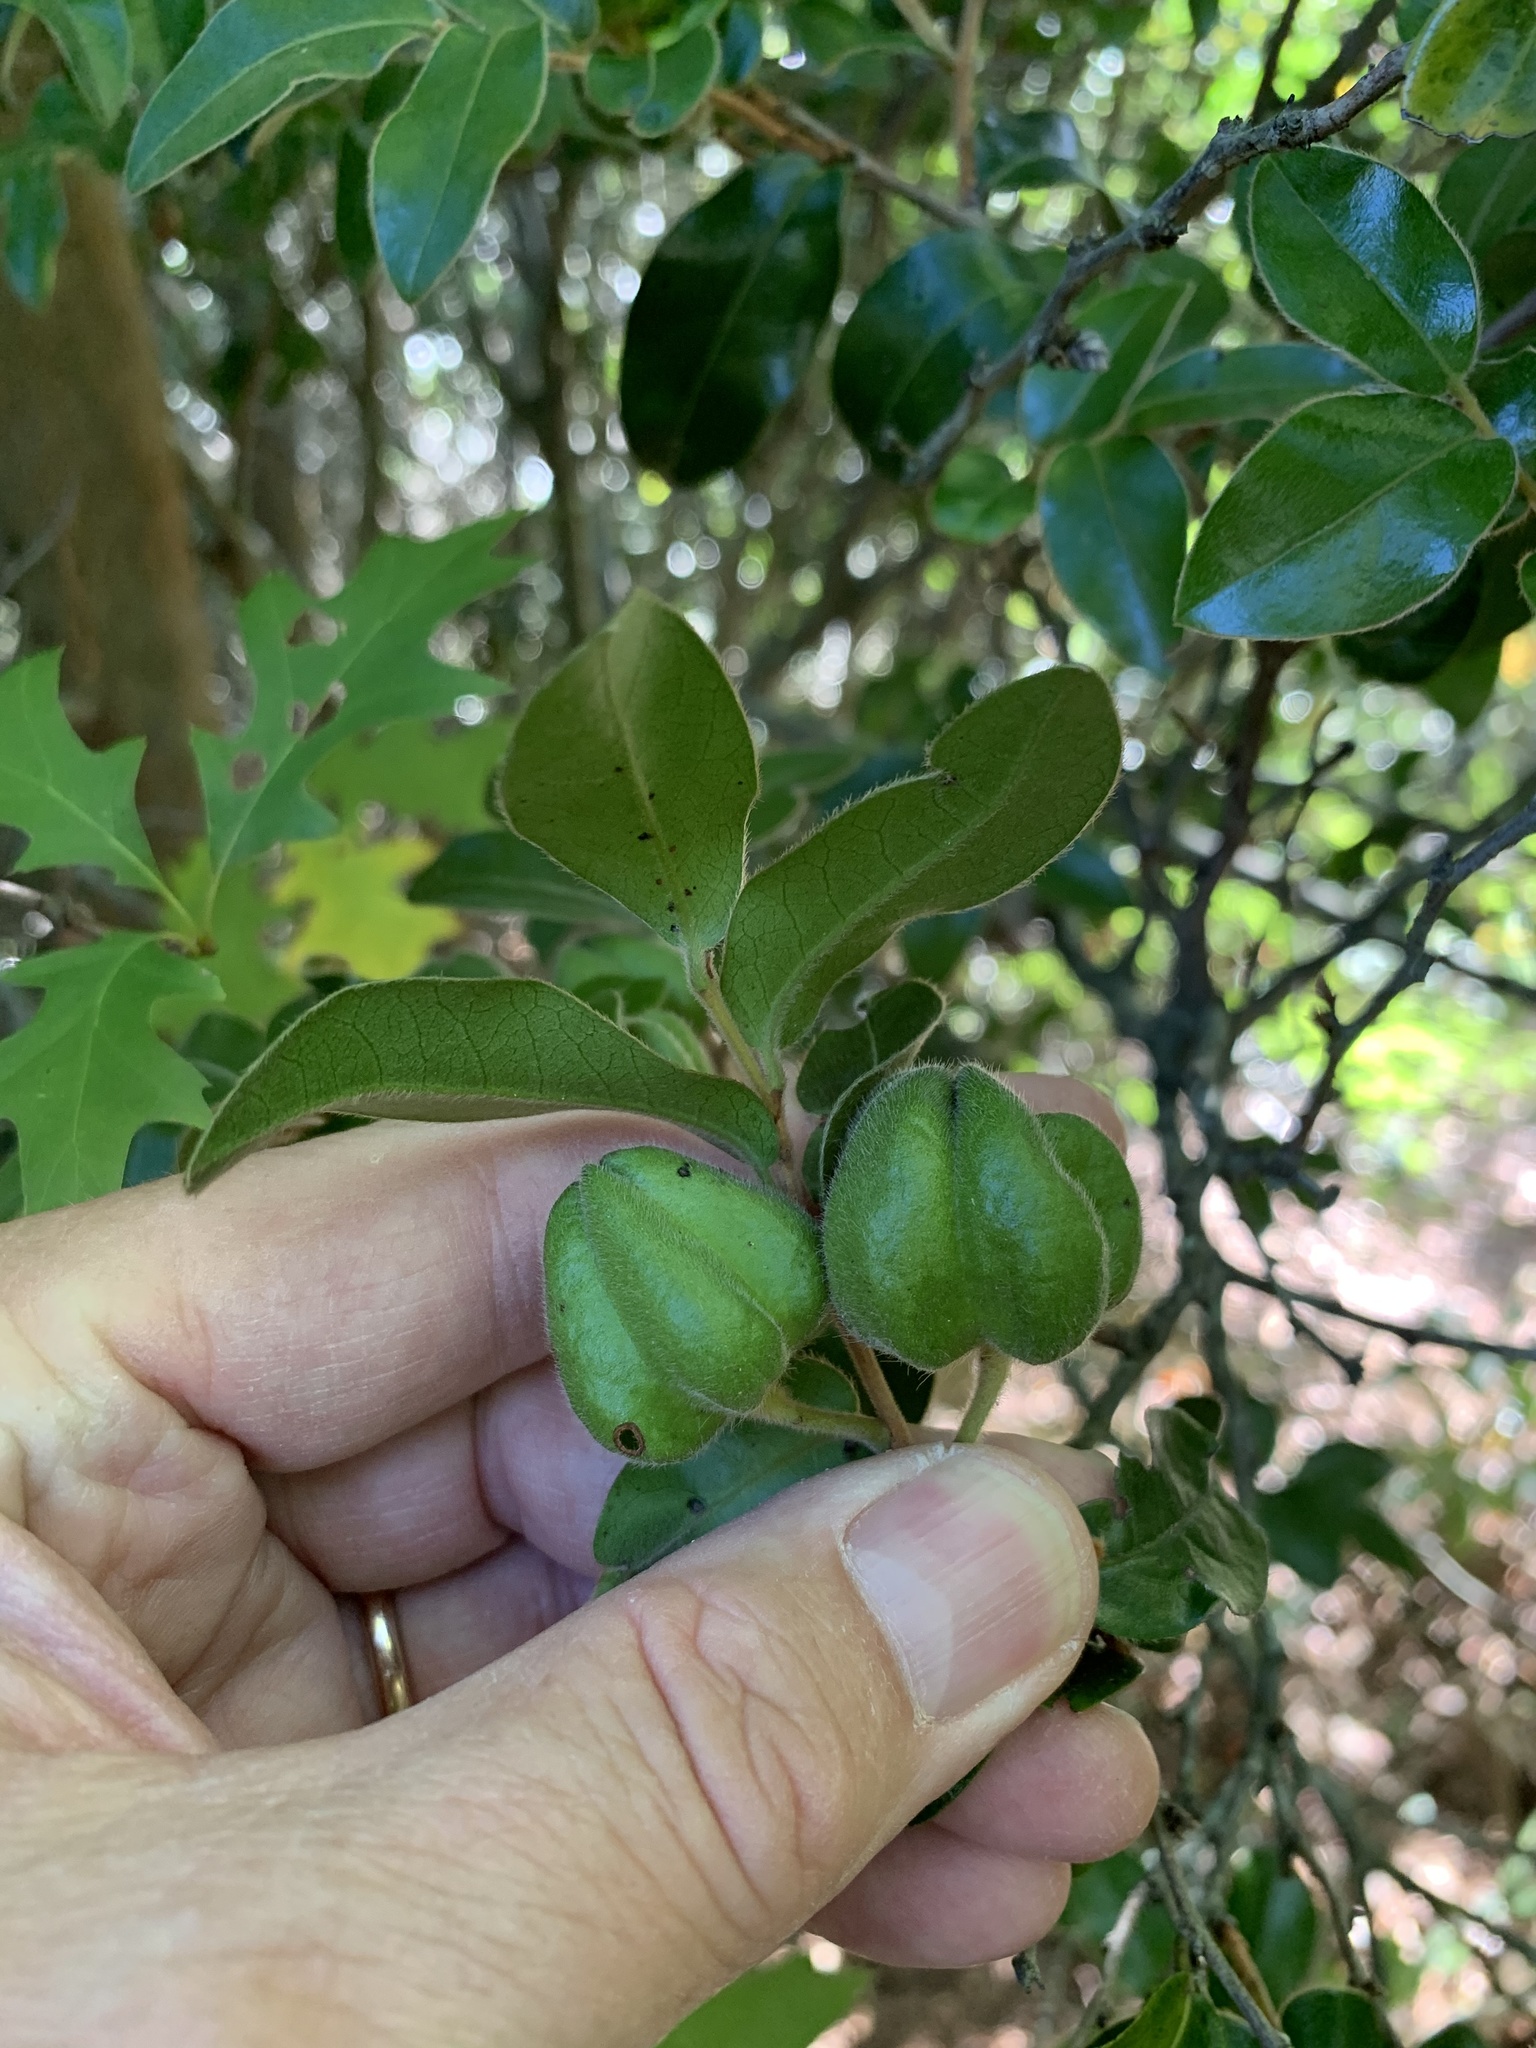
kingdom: Plantae
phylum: Tracheophyta
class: Magnoliopsida
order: Ericales
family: Ebenaceae
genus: Diospyros
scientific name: Diospyros whyteana
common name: Bladder-nut
